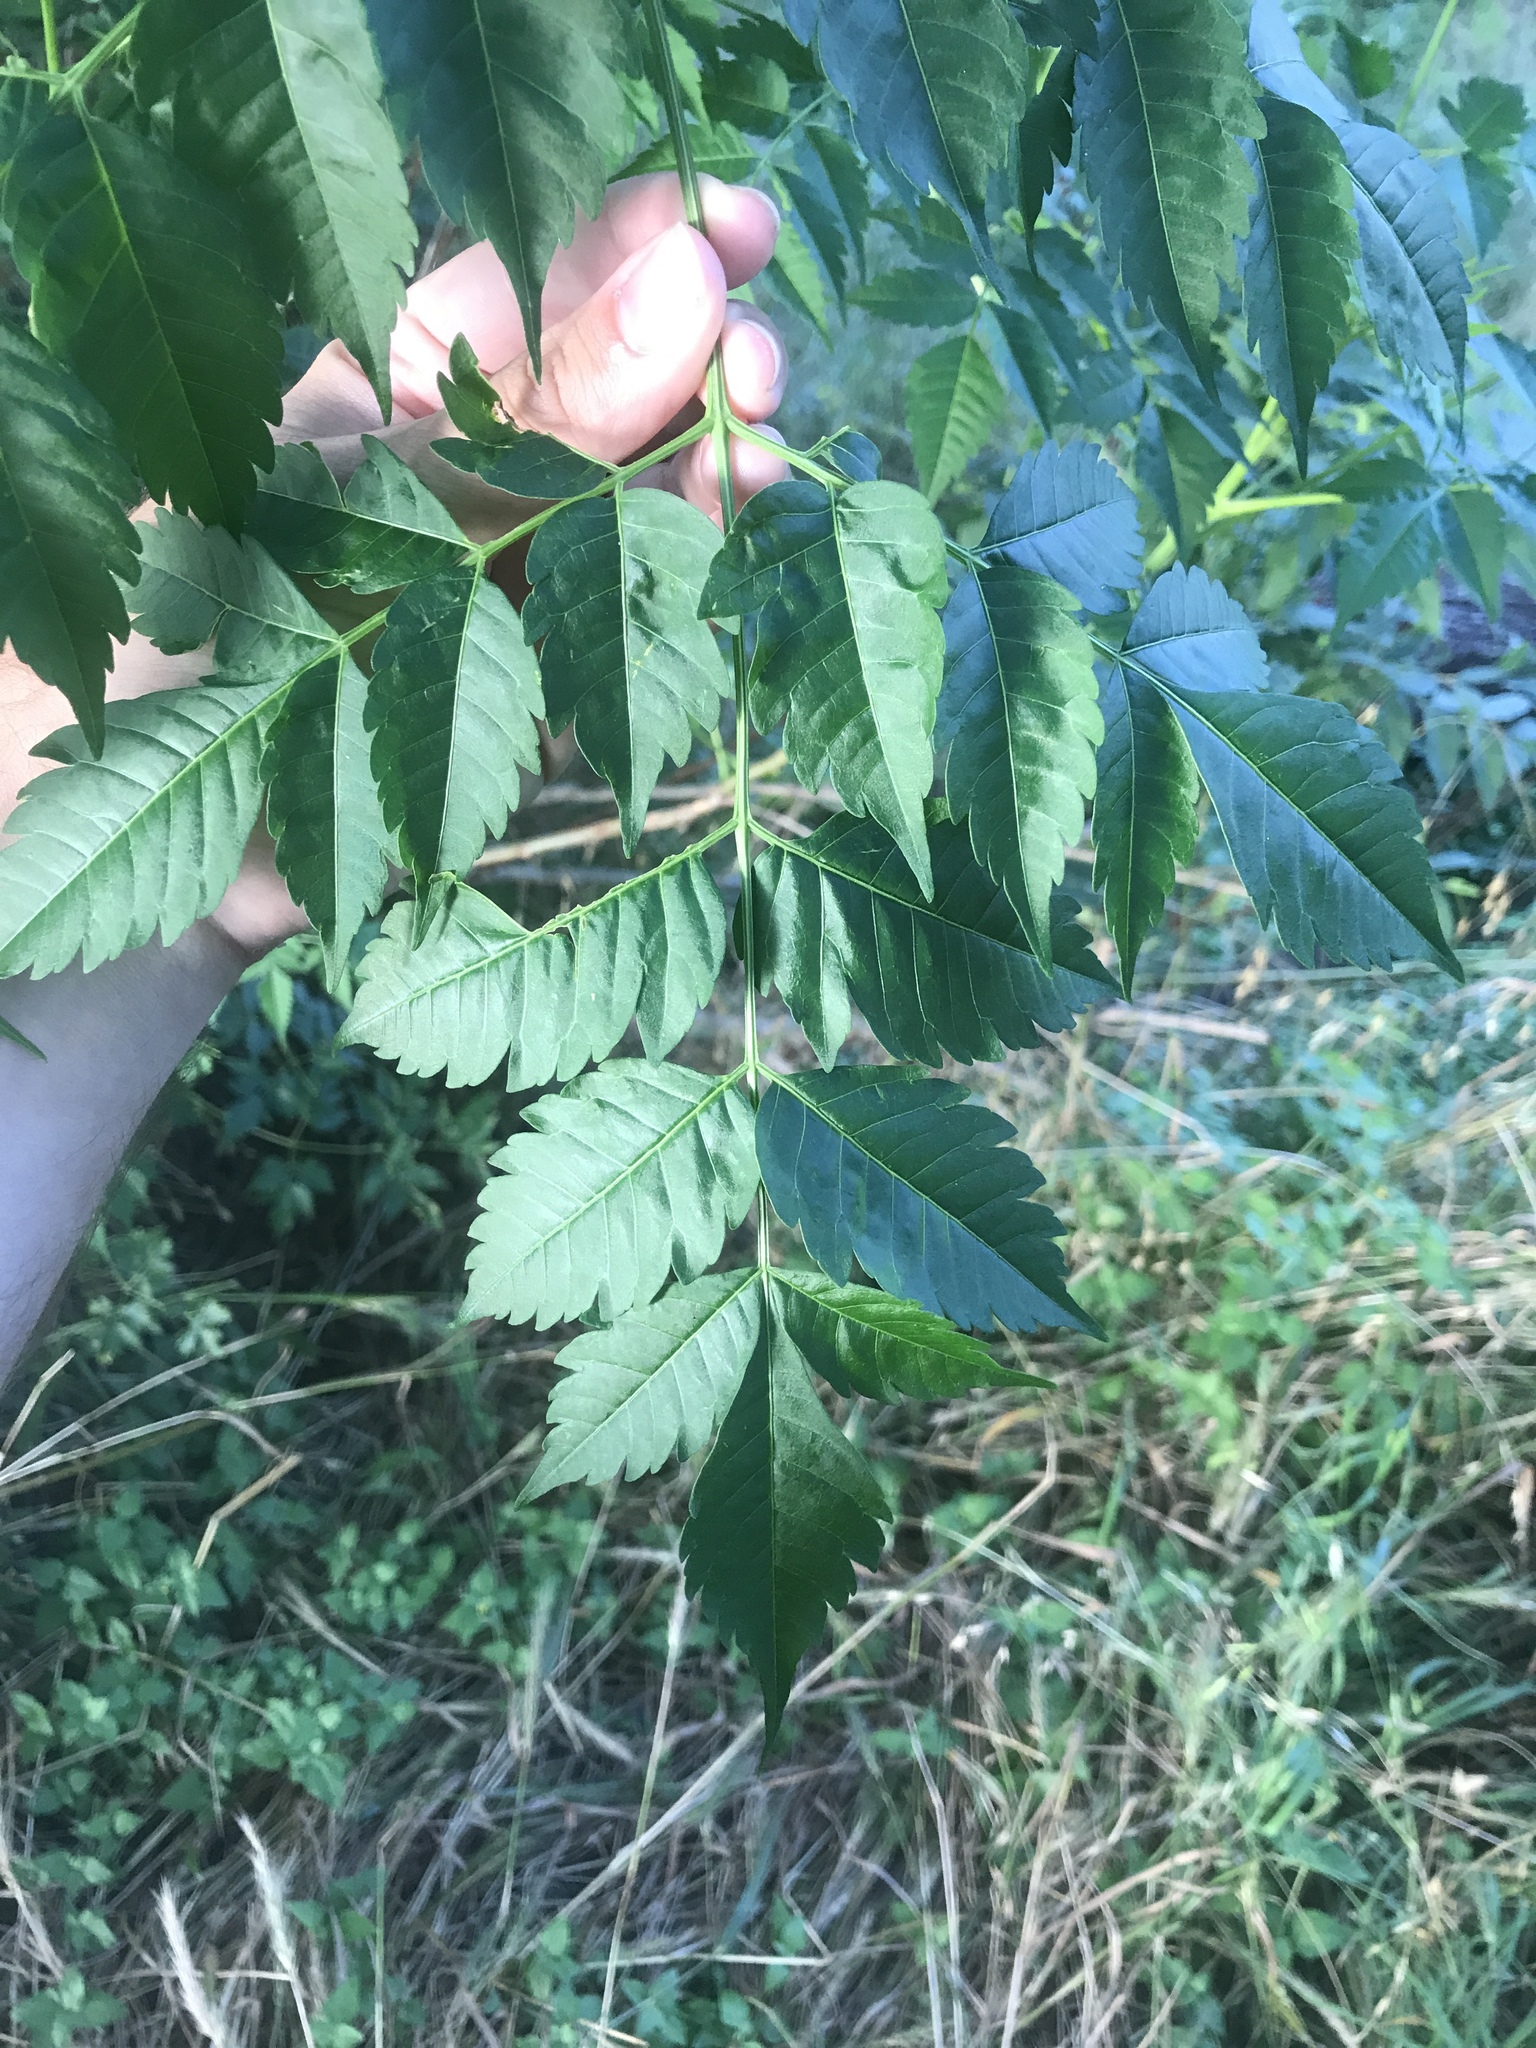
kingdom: Plantae
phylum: Tracheophyta
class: Magnoliopsida
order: Sapindales
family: Meliaceae
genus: Melia
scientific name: Melia azedarach
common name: Chinaberrytree
